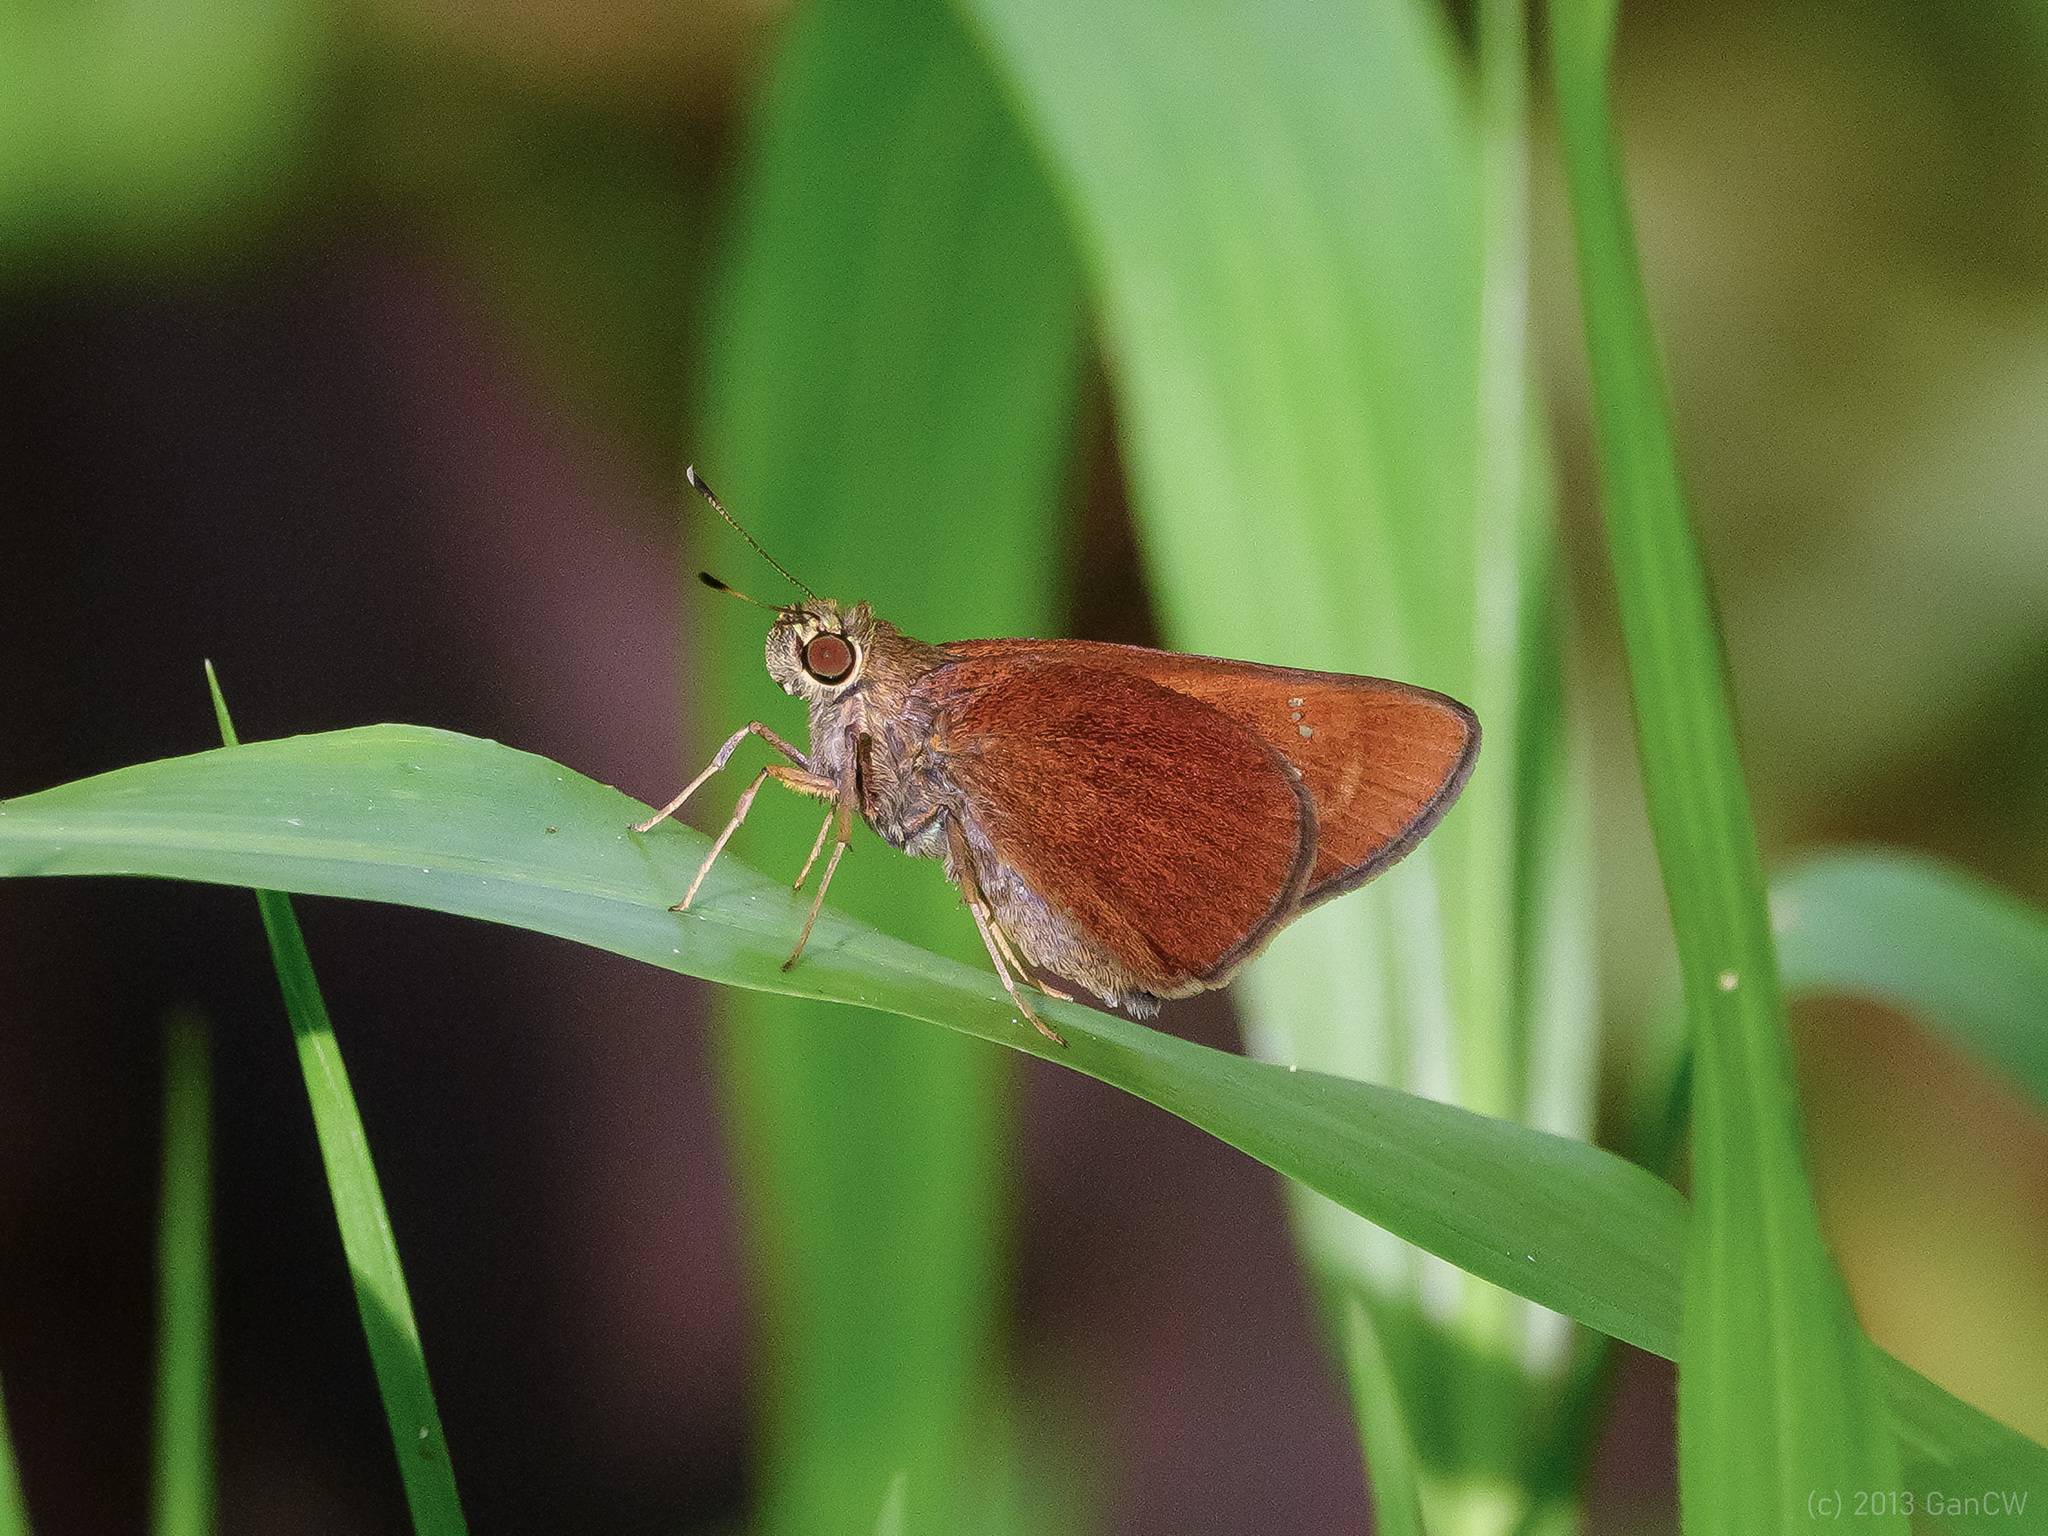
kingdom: Animalia
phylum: Arthropoda
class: Insecta
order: Lepidoptera
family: Hesperiidae
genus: Caltoris
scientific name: Caltoris cormasa
